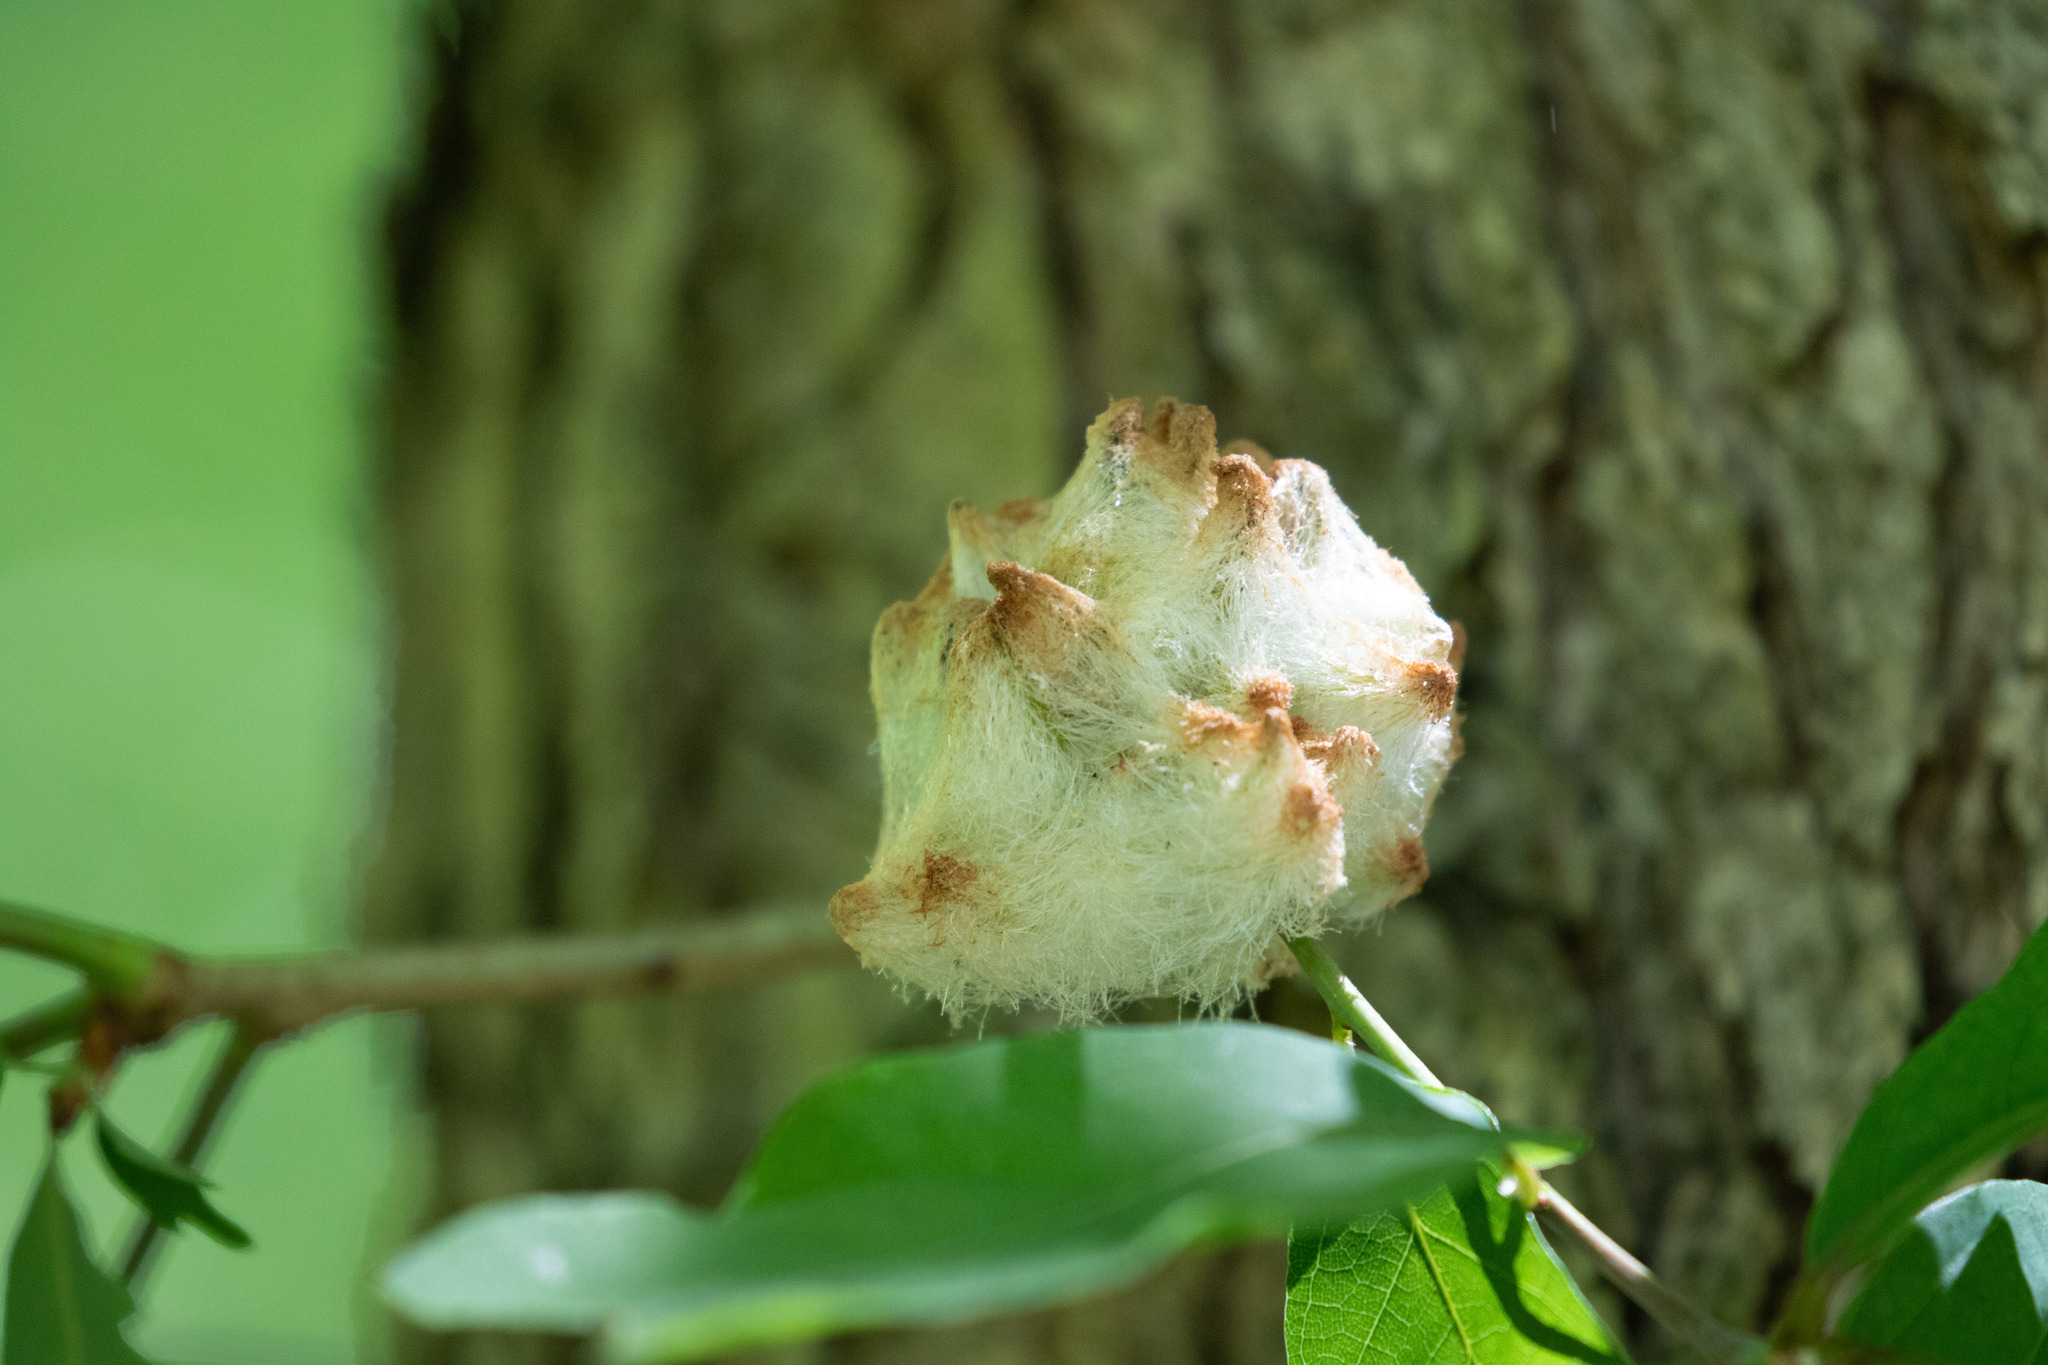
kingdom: Animalia
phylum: Arthropoda
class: Insecta
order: Hymenoptera
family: Cynipidae
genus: Callirhytis
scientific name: Callirhytis
